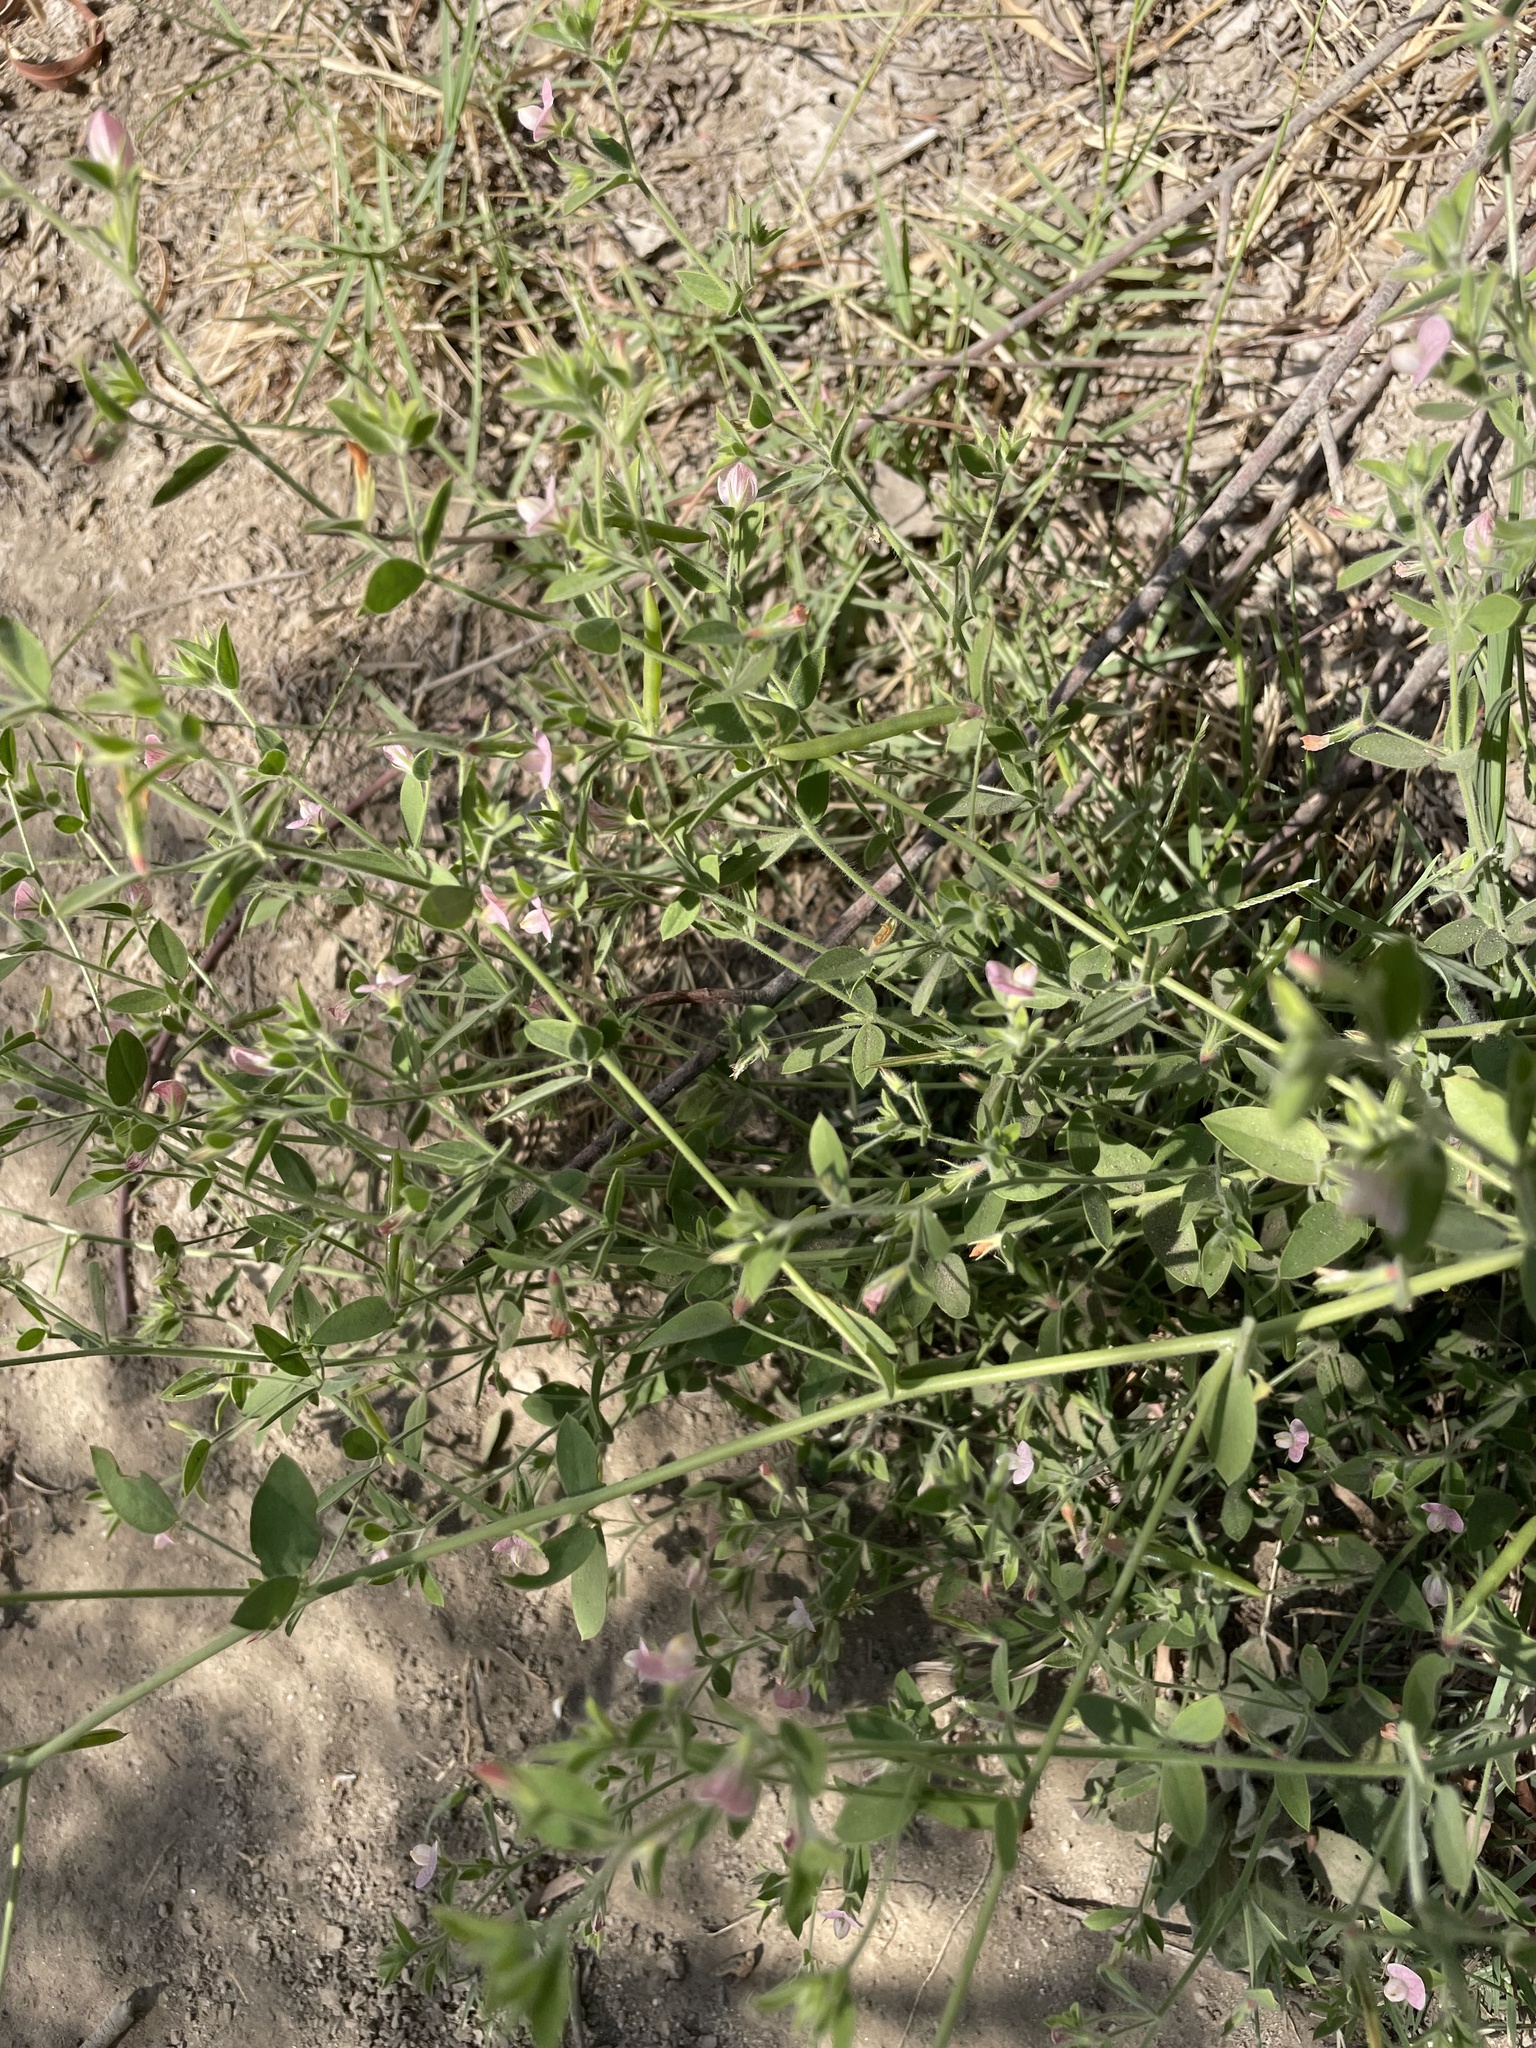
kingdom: Plantae
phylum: Tracheophyta
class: Magnoliopsida
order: Fabales
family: Fabaceae
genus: Acmispon
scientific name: Acmispon americanus
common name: American bird's-foot trefoil
